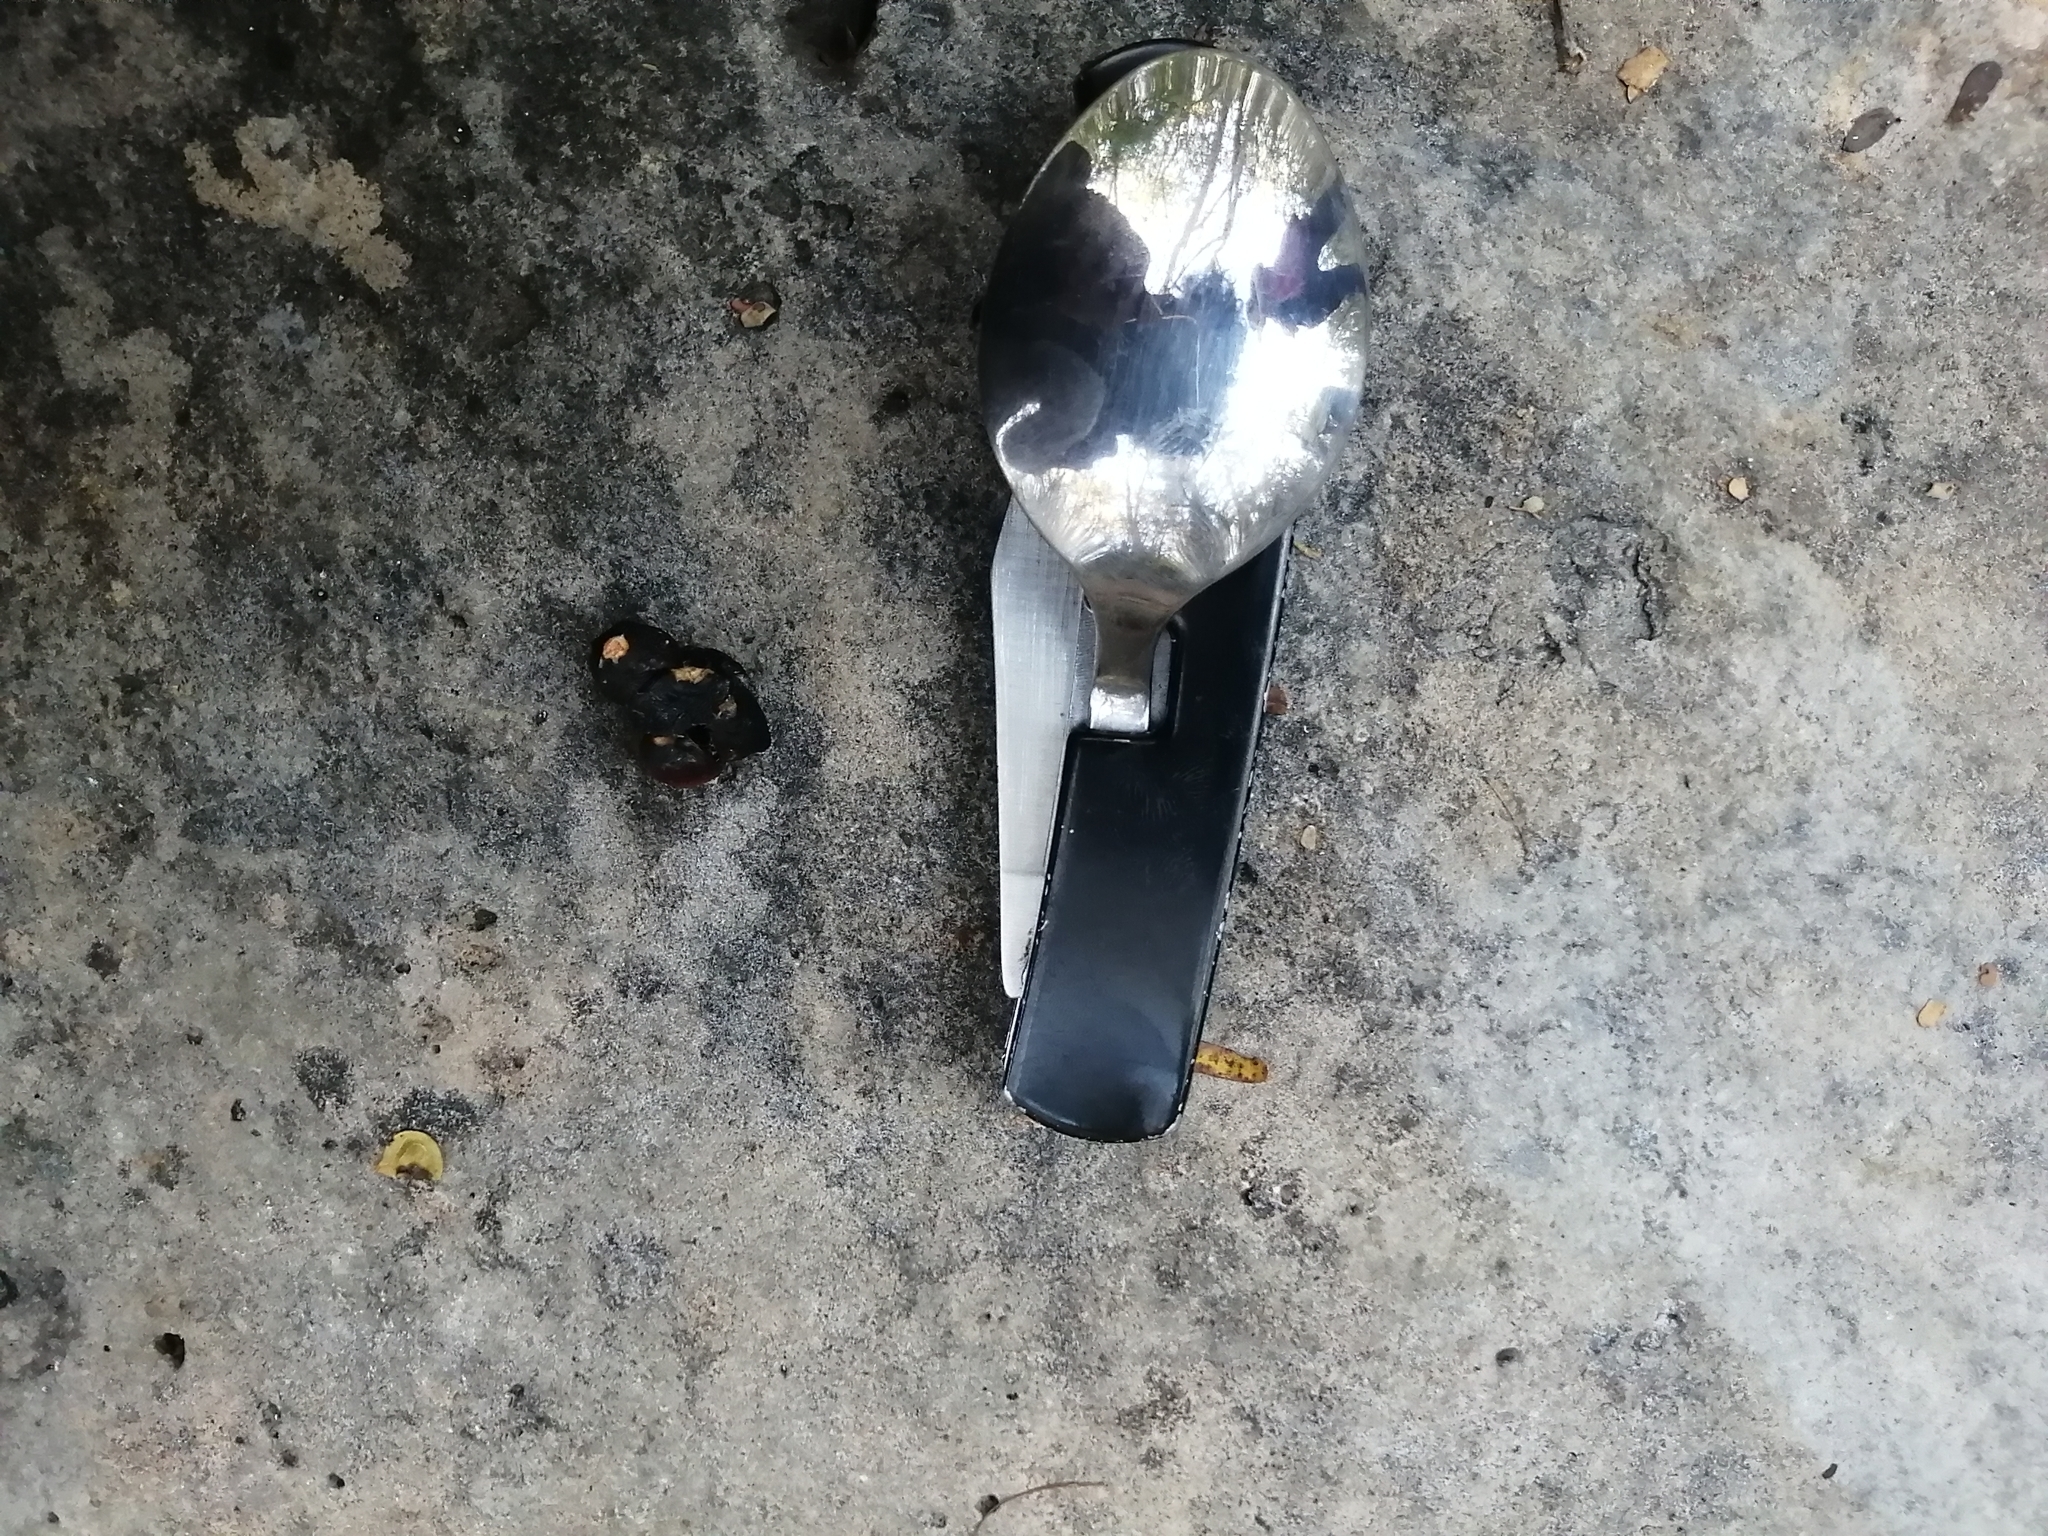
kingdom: Animalia
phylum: Chordata
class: Mammalia
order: Artiodactyla
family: Tayassuidae
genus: Pecari
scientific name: Pecari tajacu
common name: Collared peccary
